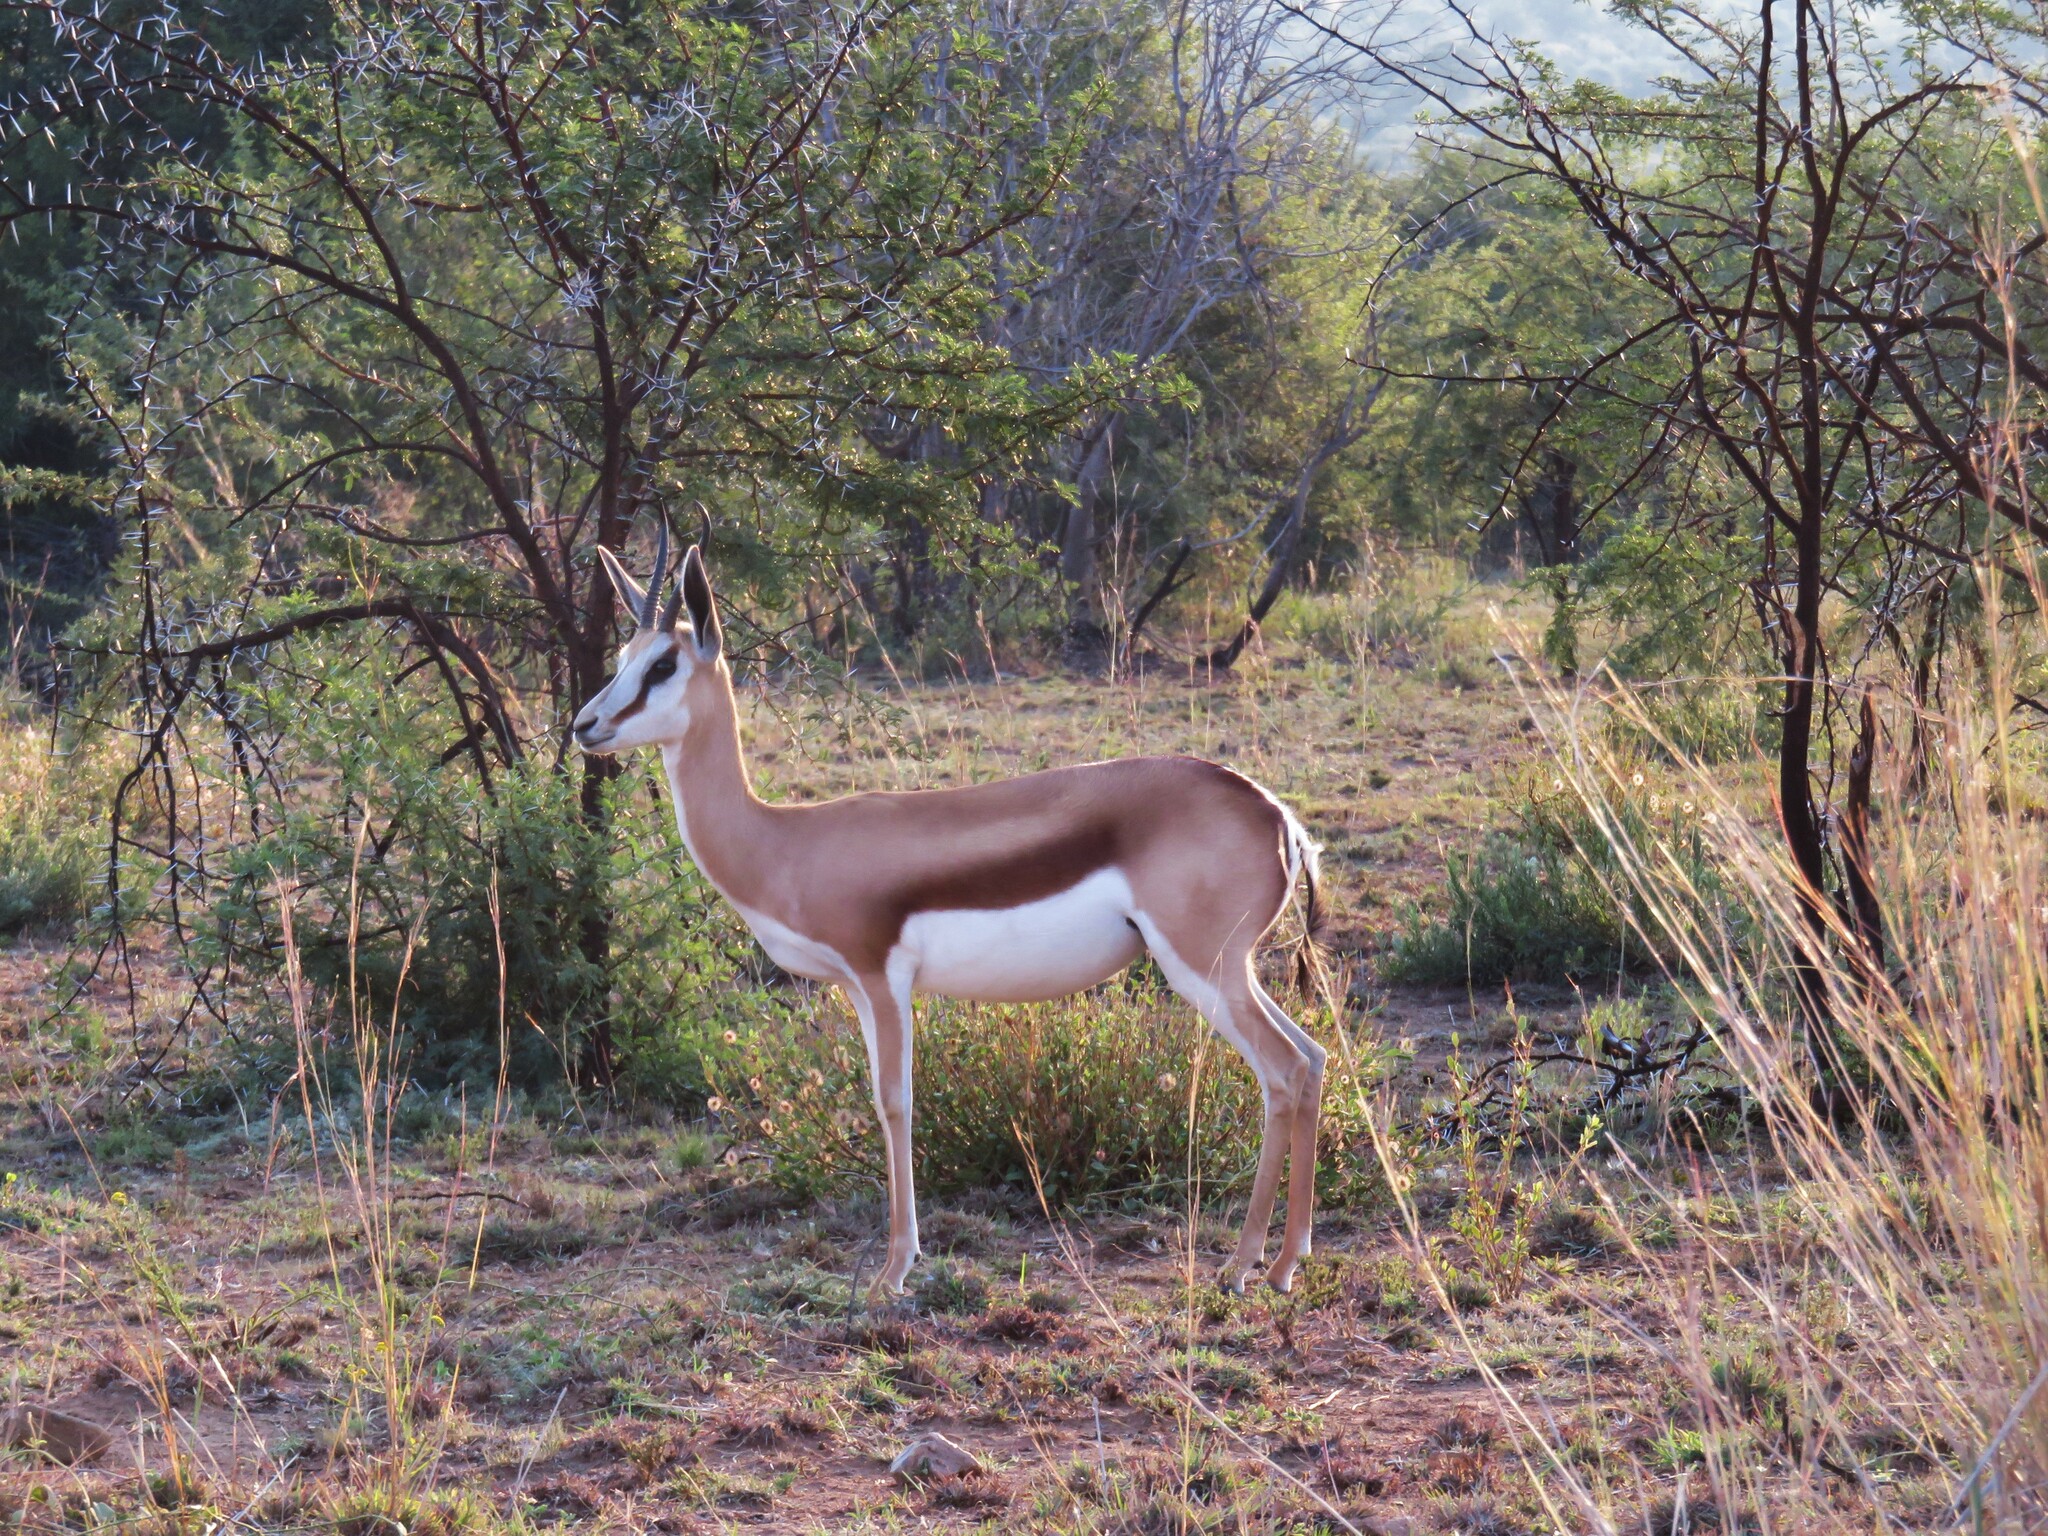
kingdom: Animalia
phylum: Chordata
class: Mammalia
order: Artiodactyla
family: Bovidae
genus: Antidorcas
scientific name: Antidorcas marsupialis
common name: Springbok
